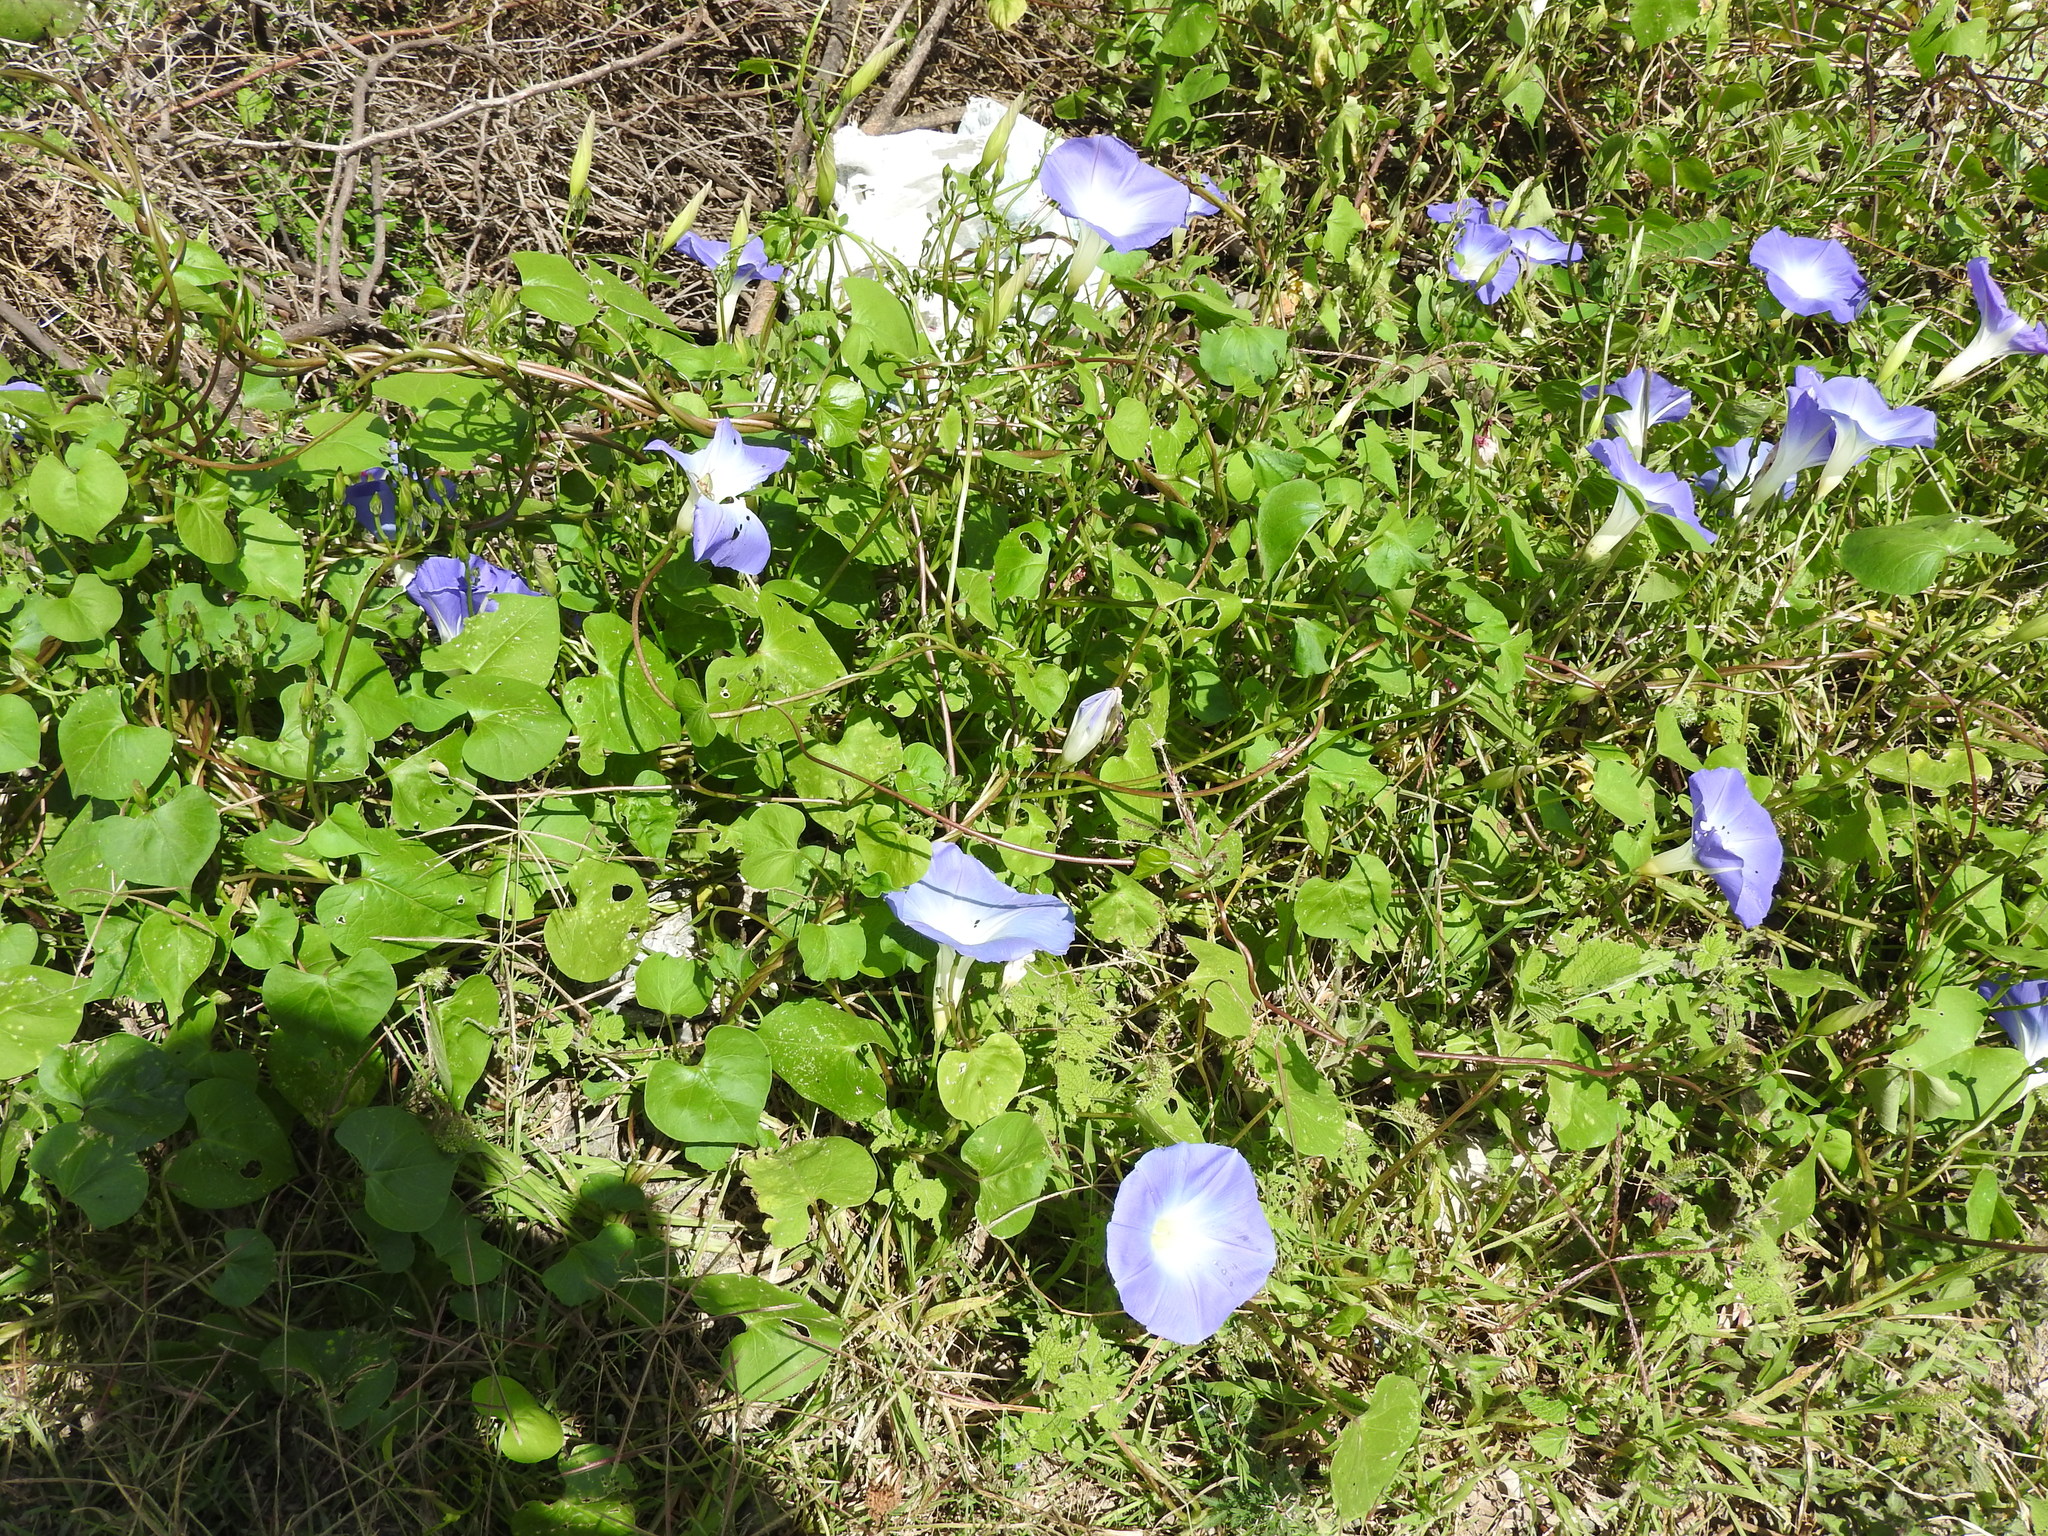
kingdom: Plantae
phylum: Tracheophyta
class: Magnoliopsida
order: Solanales
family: Convolvulaceae
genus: Ipomoea
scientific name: Ipomoea tricolor
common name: Morning-glory
